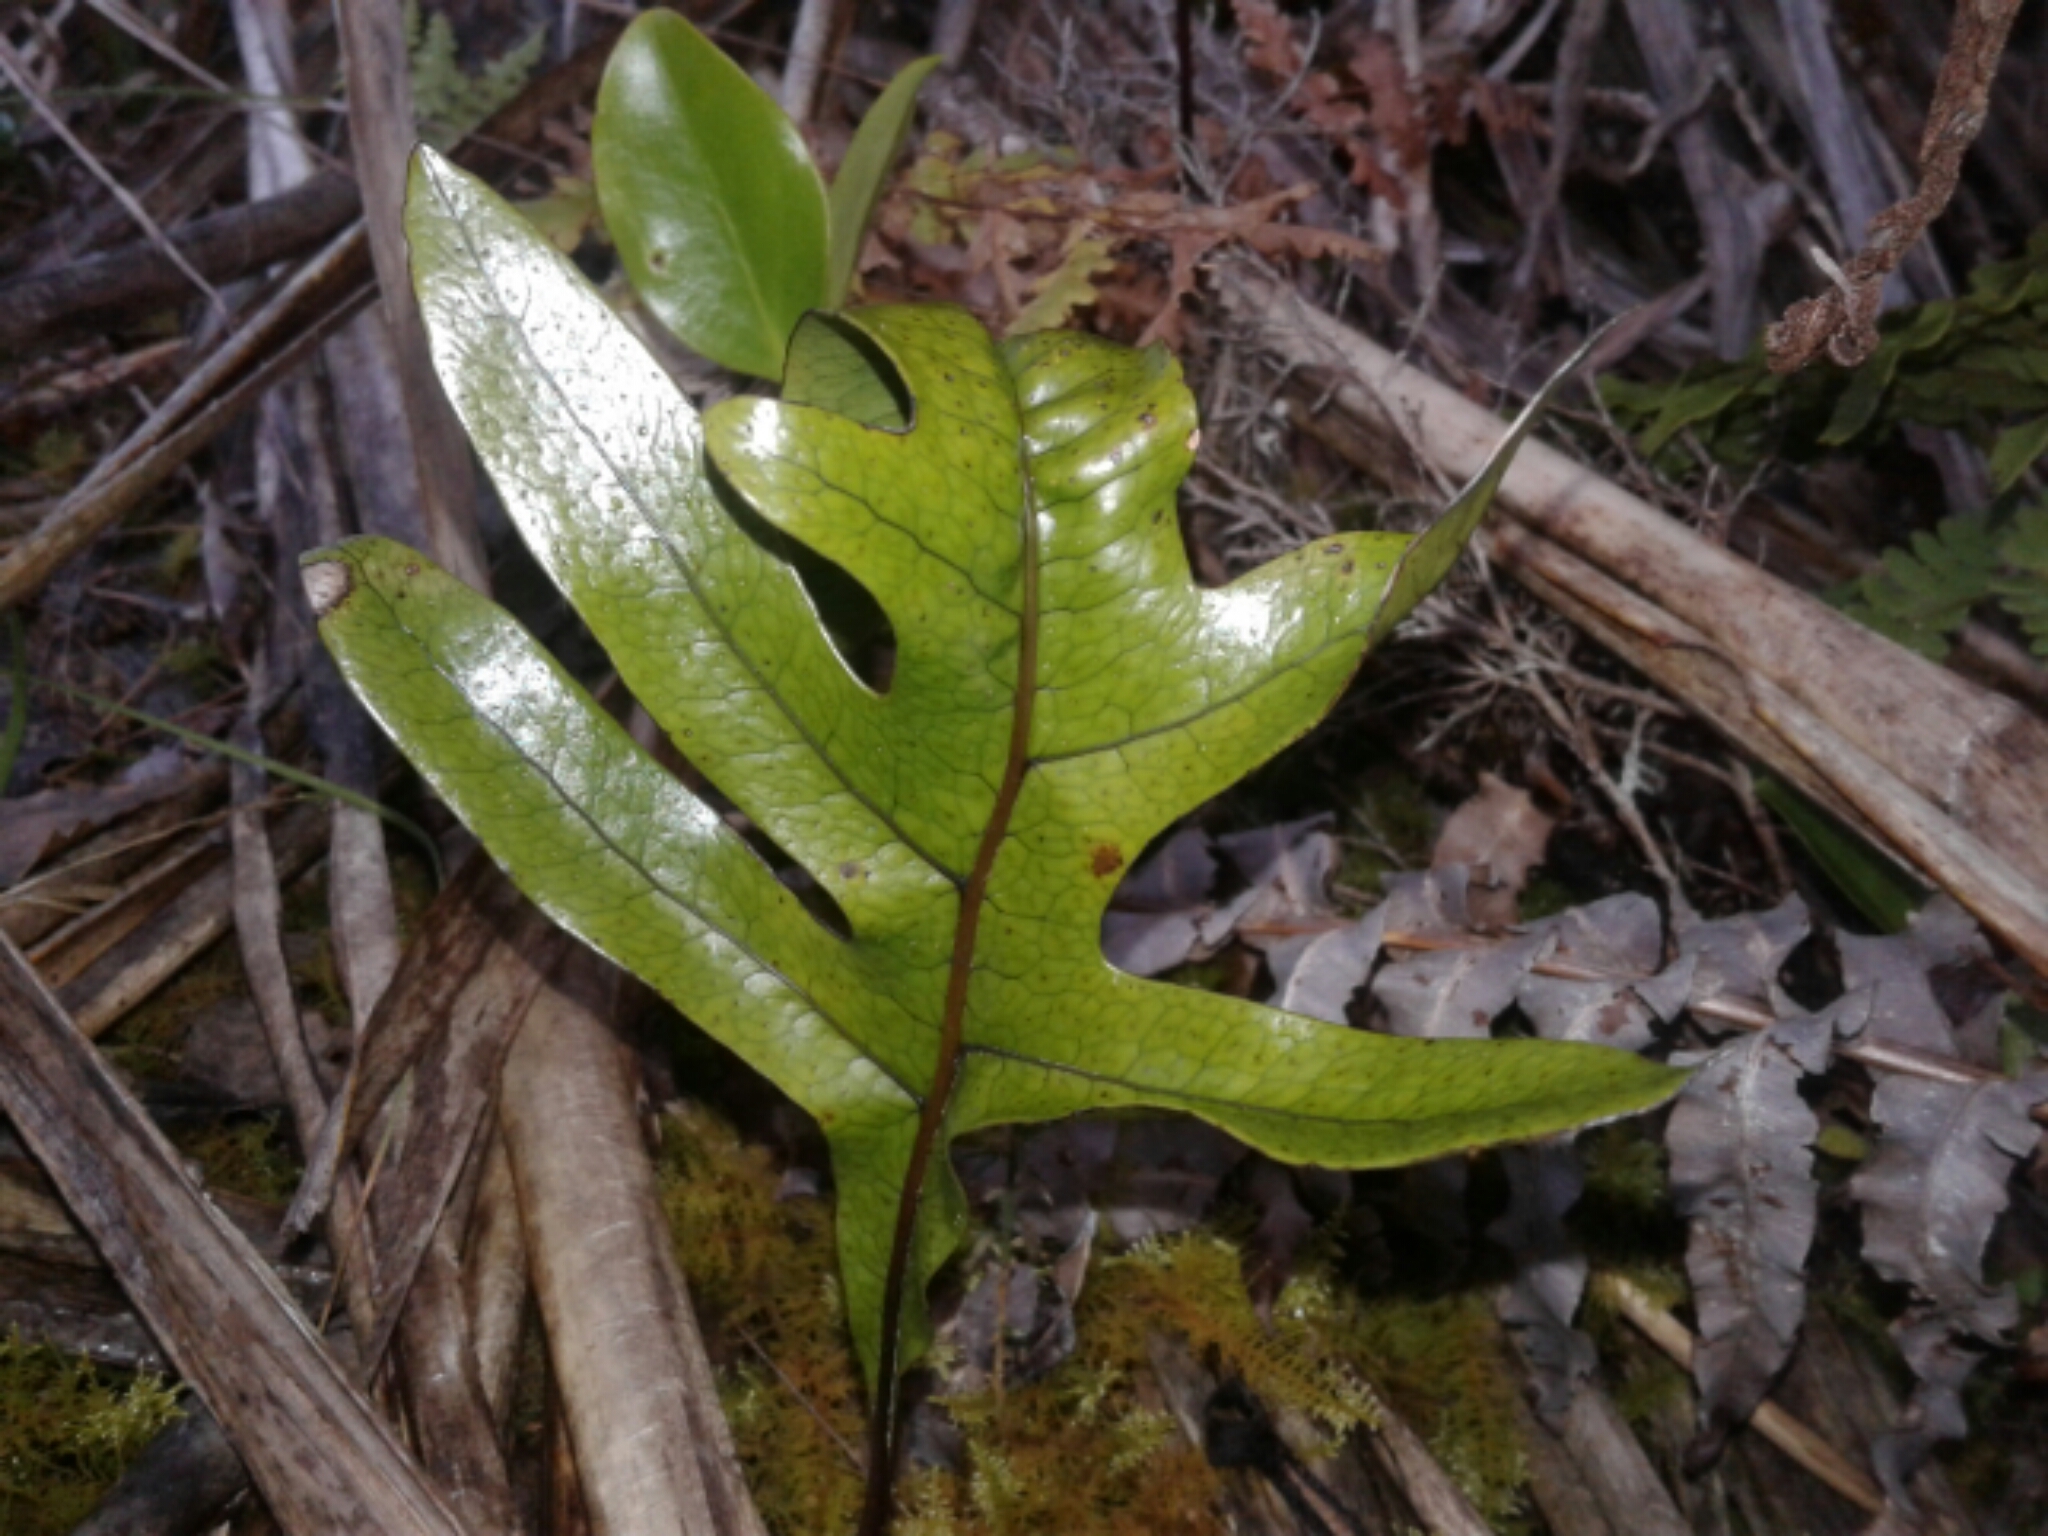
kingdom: Plantae
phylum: Tracheophyta
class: Polypodiopsida
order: Polypodiales
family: Polypodiaceae
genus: Lecanopteris
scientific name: Lecanopteris pustulata
